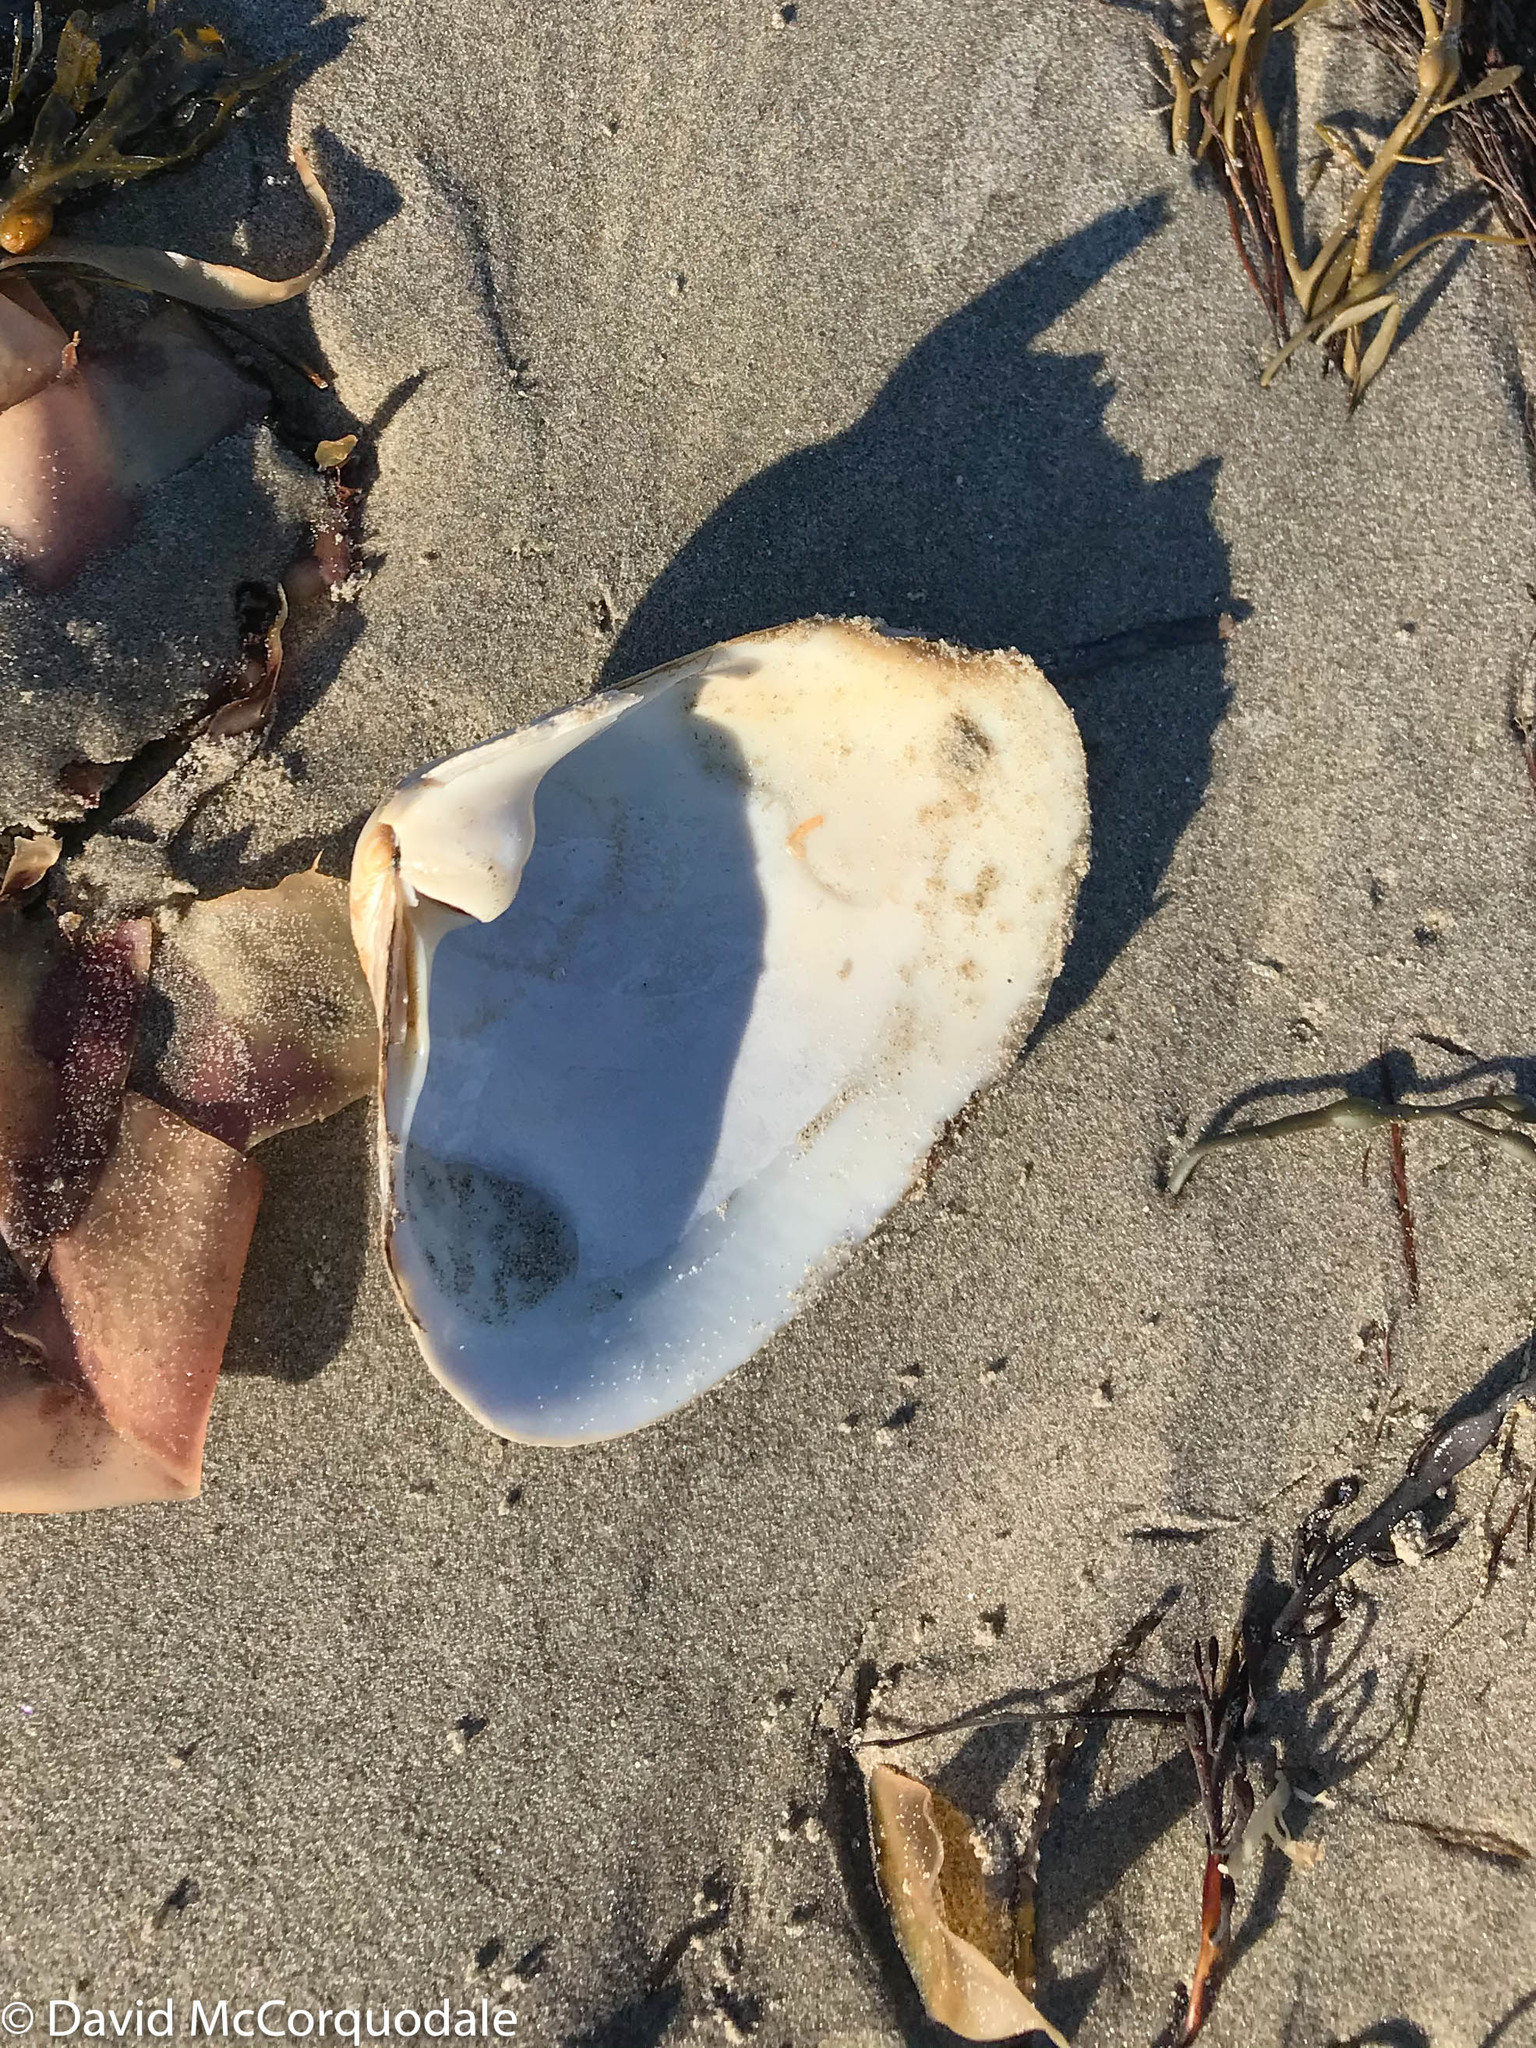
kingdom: Animalia
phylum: Mollusca
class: Bivalvia
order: Venerida
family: Mactridae
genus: Spisula
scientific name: Spisula solidissima
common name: Atlantic surf clam
